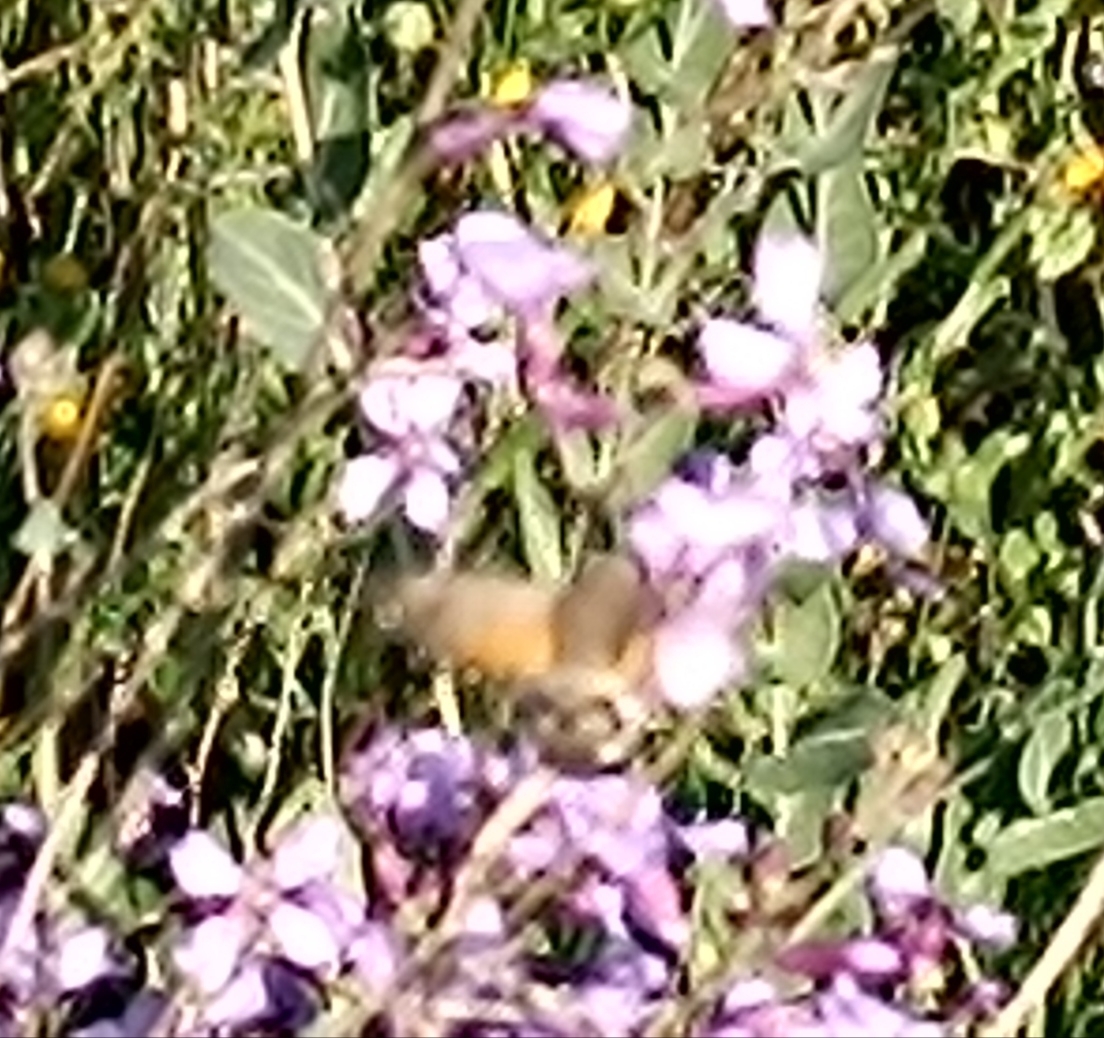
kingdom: Animalia
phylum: Arthropoda
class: Insecta
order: Lepidoptera
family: Sphingidae
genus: Macroglossum
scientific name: Macroglossum stellatarum
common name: Humming-bird hawk-moth
